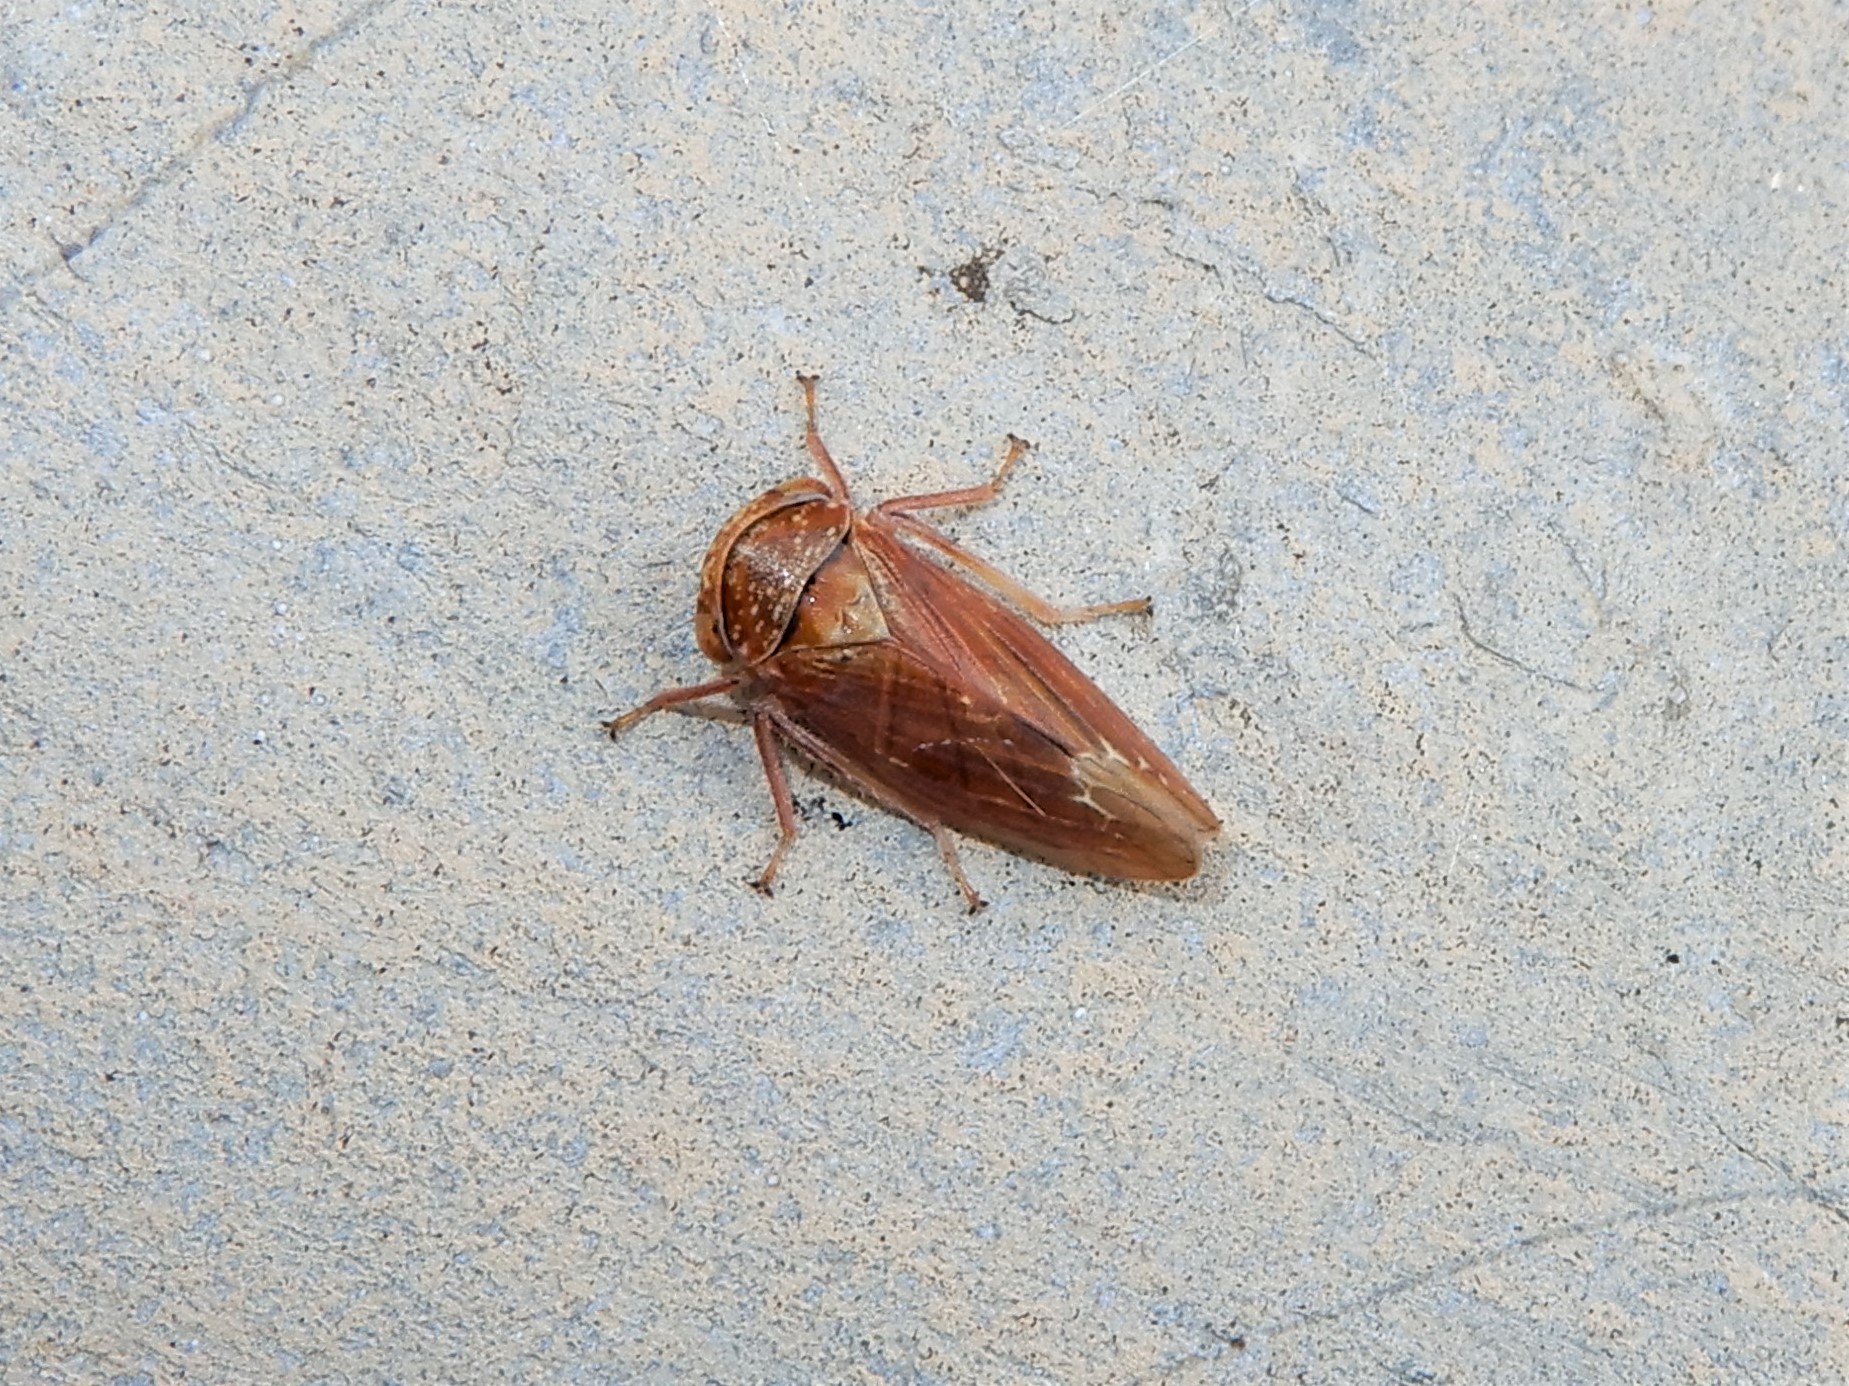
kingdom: Animalia
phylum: Arthropoda
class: Insecta
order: Hemiptera
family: Cicadellidae
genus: Rhytidodus
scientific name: Rhytidodus decimusquartus
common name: Leafhopper
